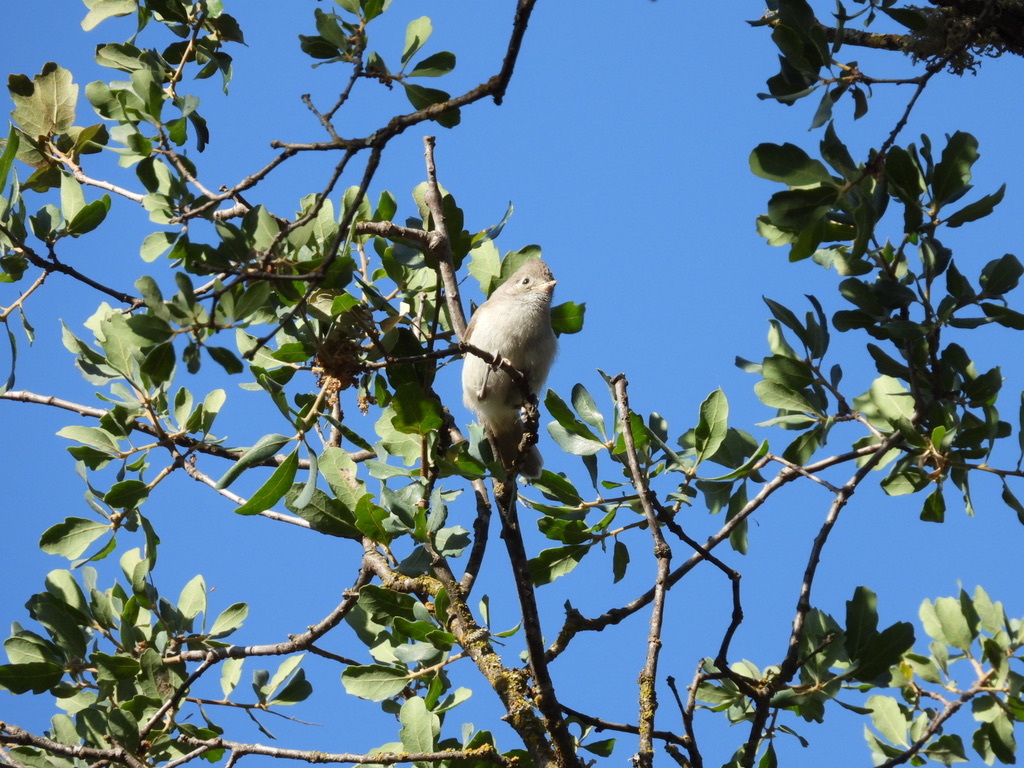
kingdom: Animalia
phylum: Chordata
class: Aves
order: Passeriformes
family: Paridae
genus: Baeolophus
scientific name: Baeolophus inornatus
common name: Oak titmouse
